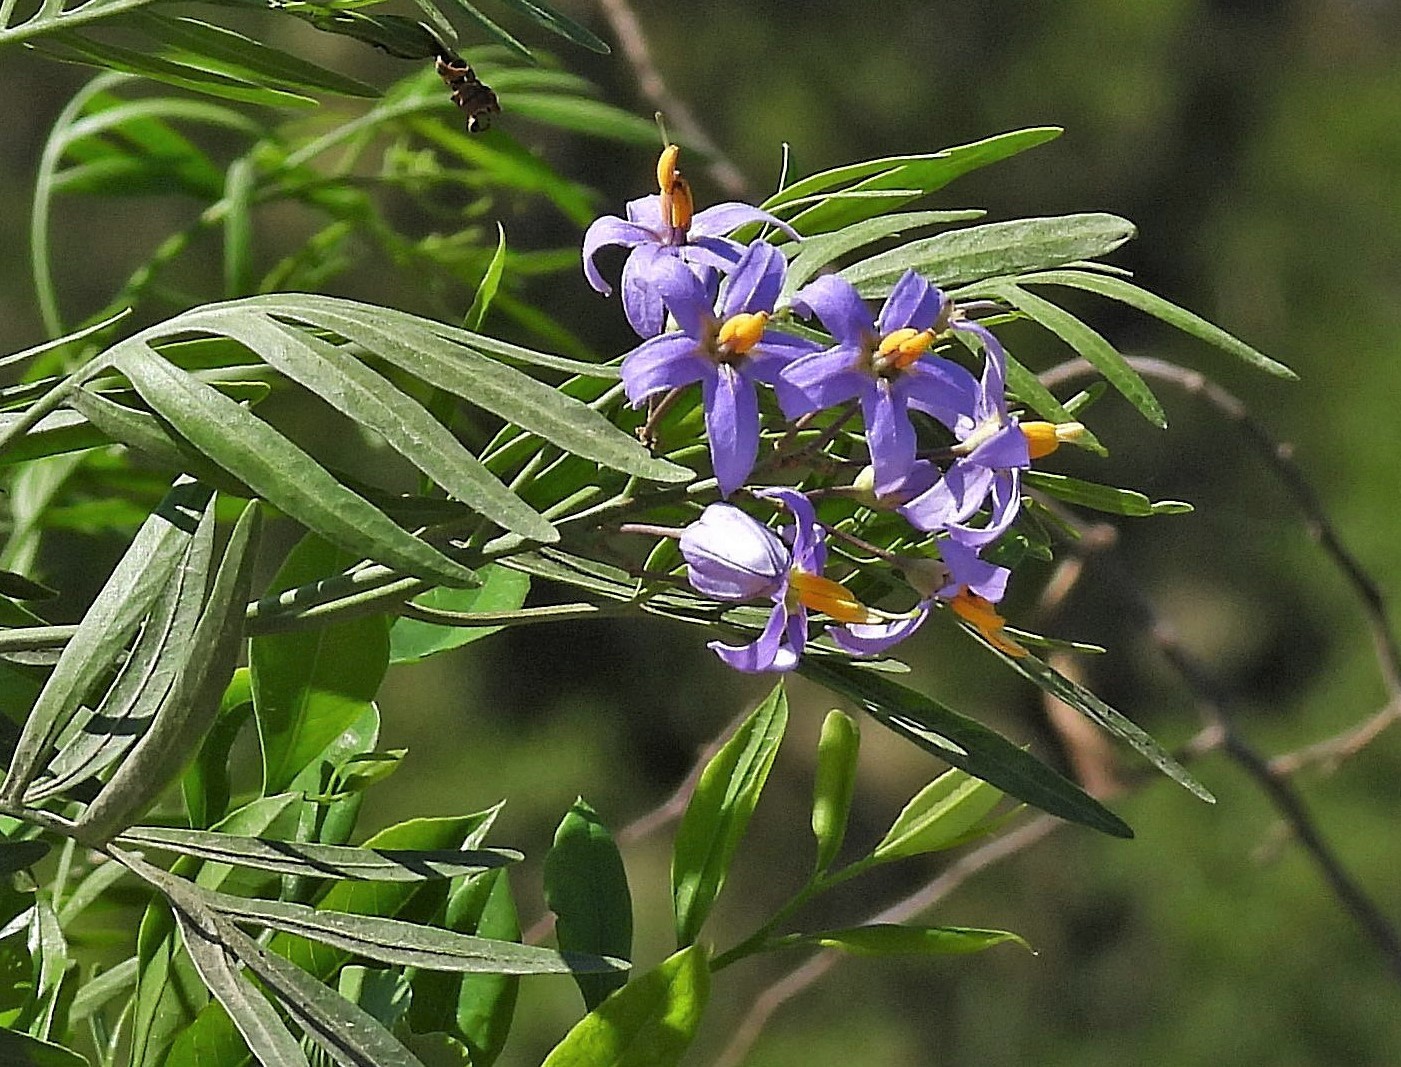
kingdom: Plantae
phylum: Tracheophyta
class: Magnoliopsida
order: Solanales
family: Solanaceae
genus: Solanum
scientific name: Solanum angustifidum
